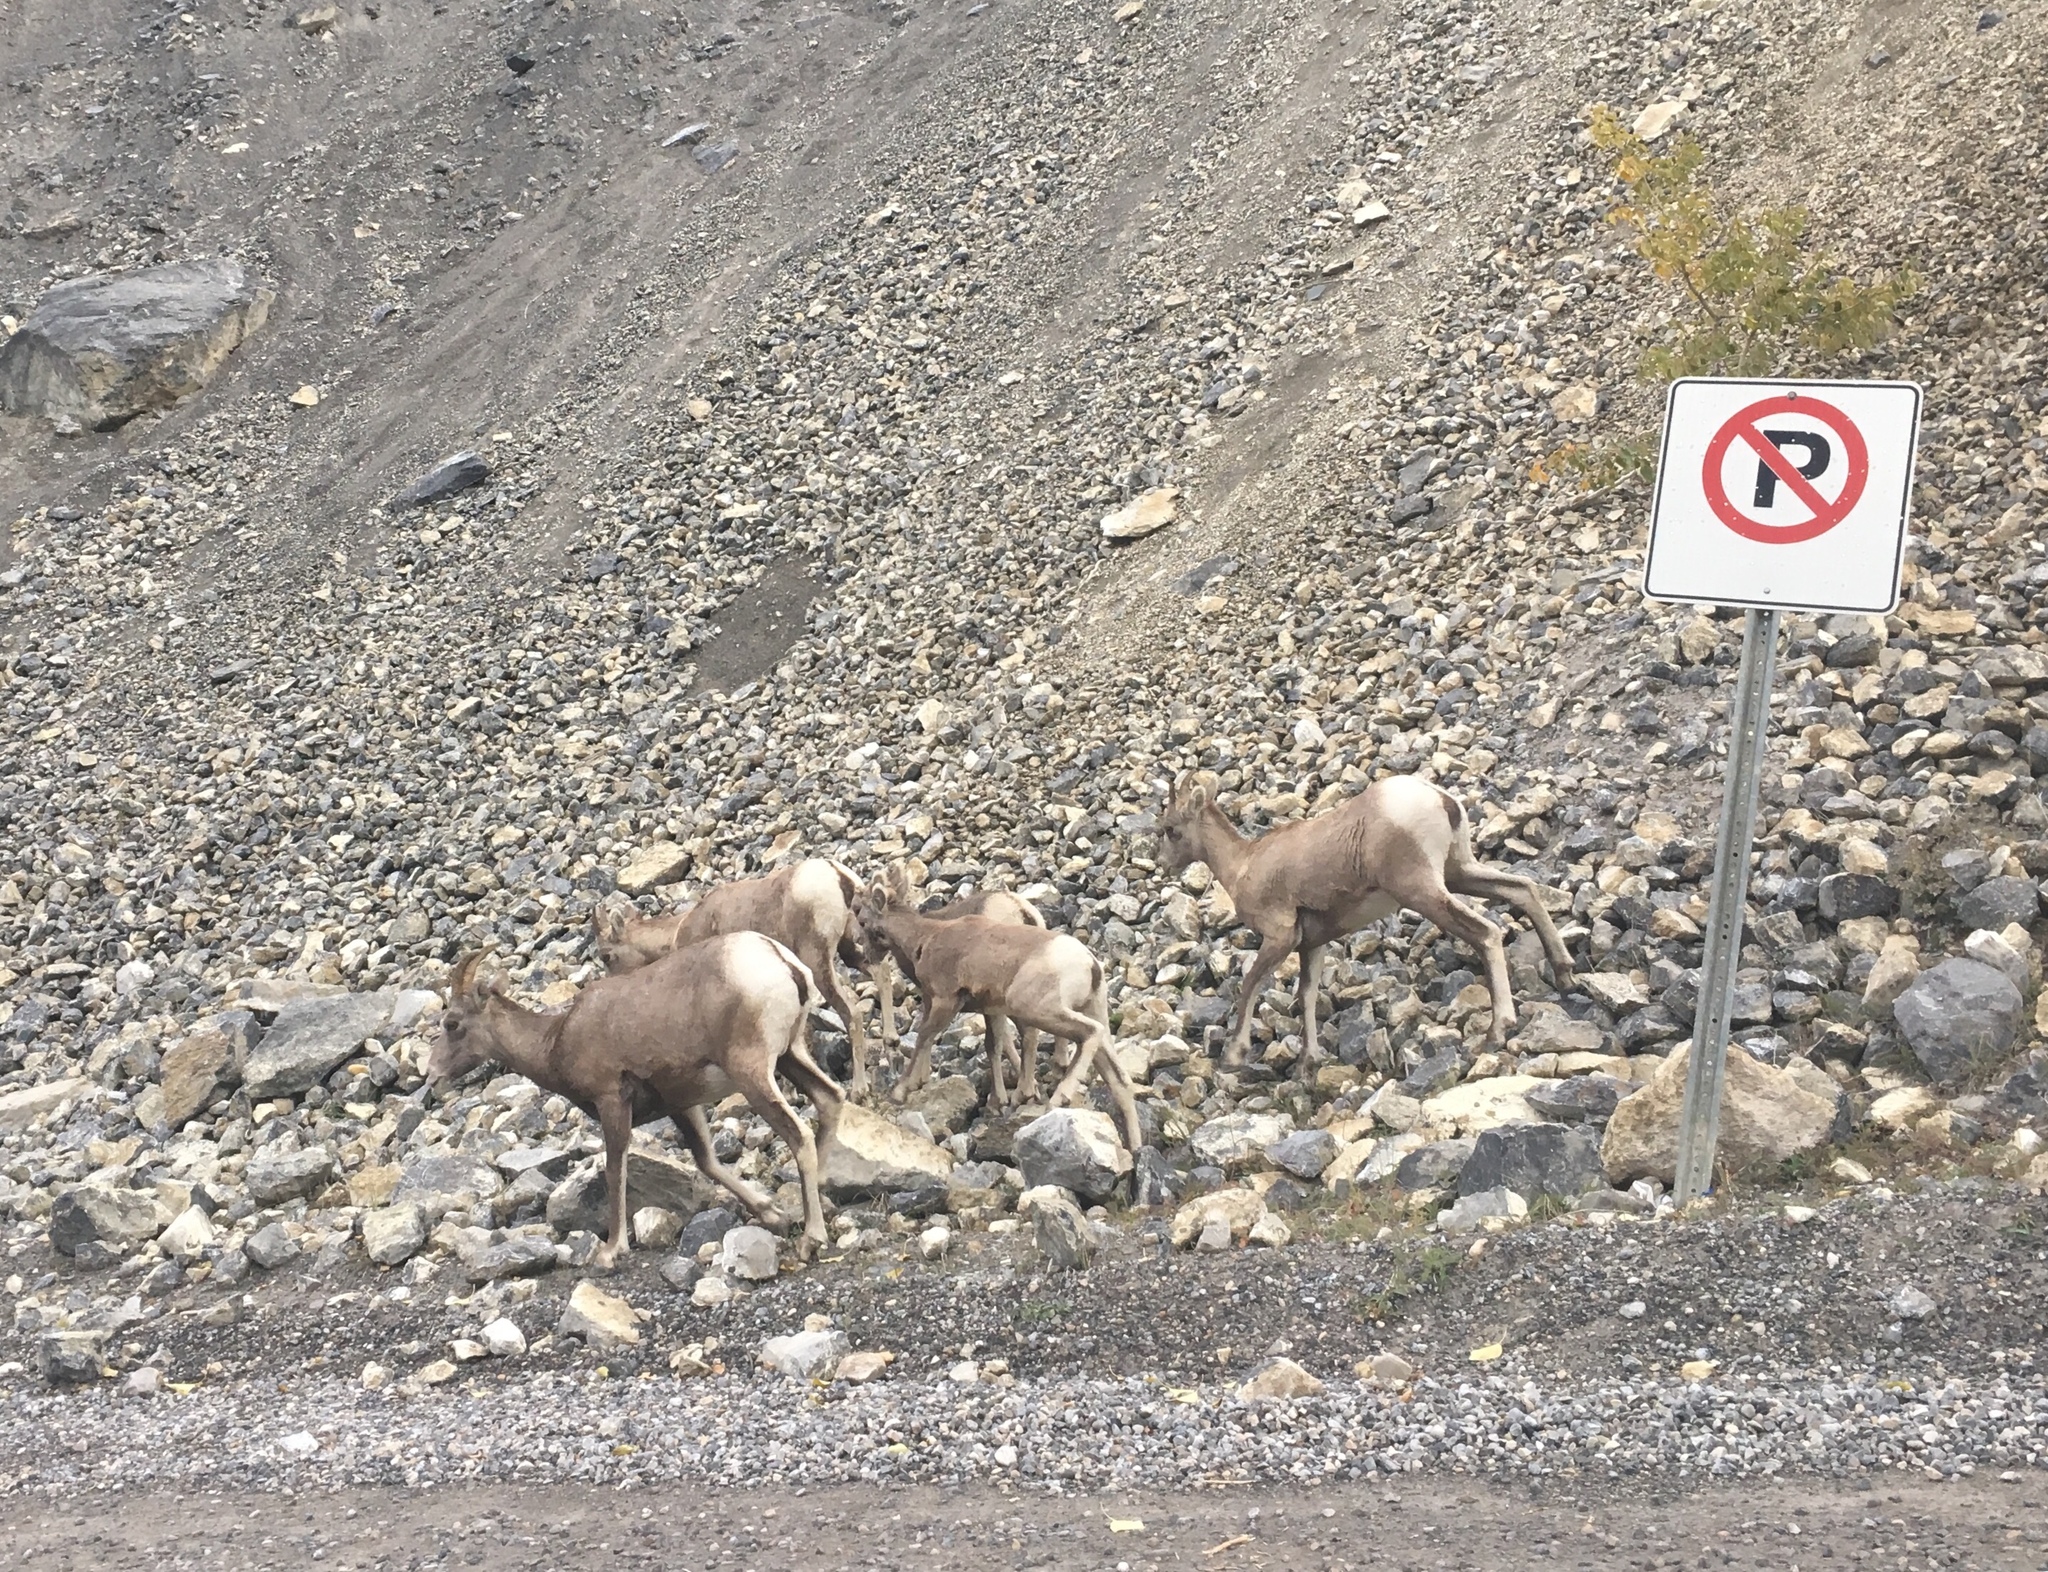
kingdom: Animalia
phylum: Chordata
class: Mammalia
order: Artiodactyla
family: Bovidae
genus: Ovis
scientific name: Ovis canadensis
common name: Bighorn sheep
